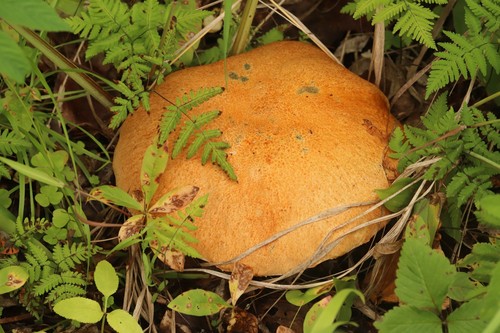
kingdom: Fungi
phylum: Basidiomycota
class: Agaricomycetes
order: Boletales
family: Boletaceae
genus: Leccinum
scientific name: Leccinum versipelle
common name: Orange birch bolete
